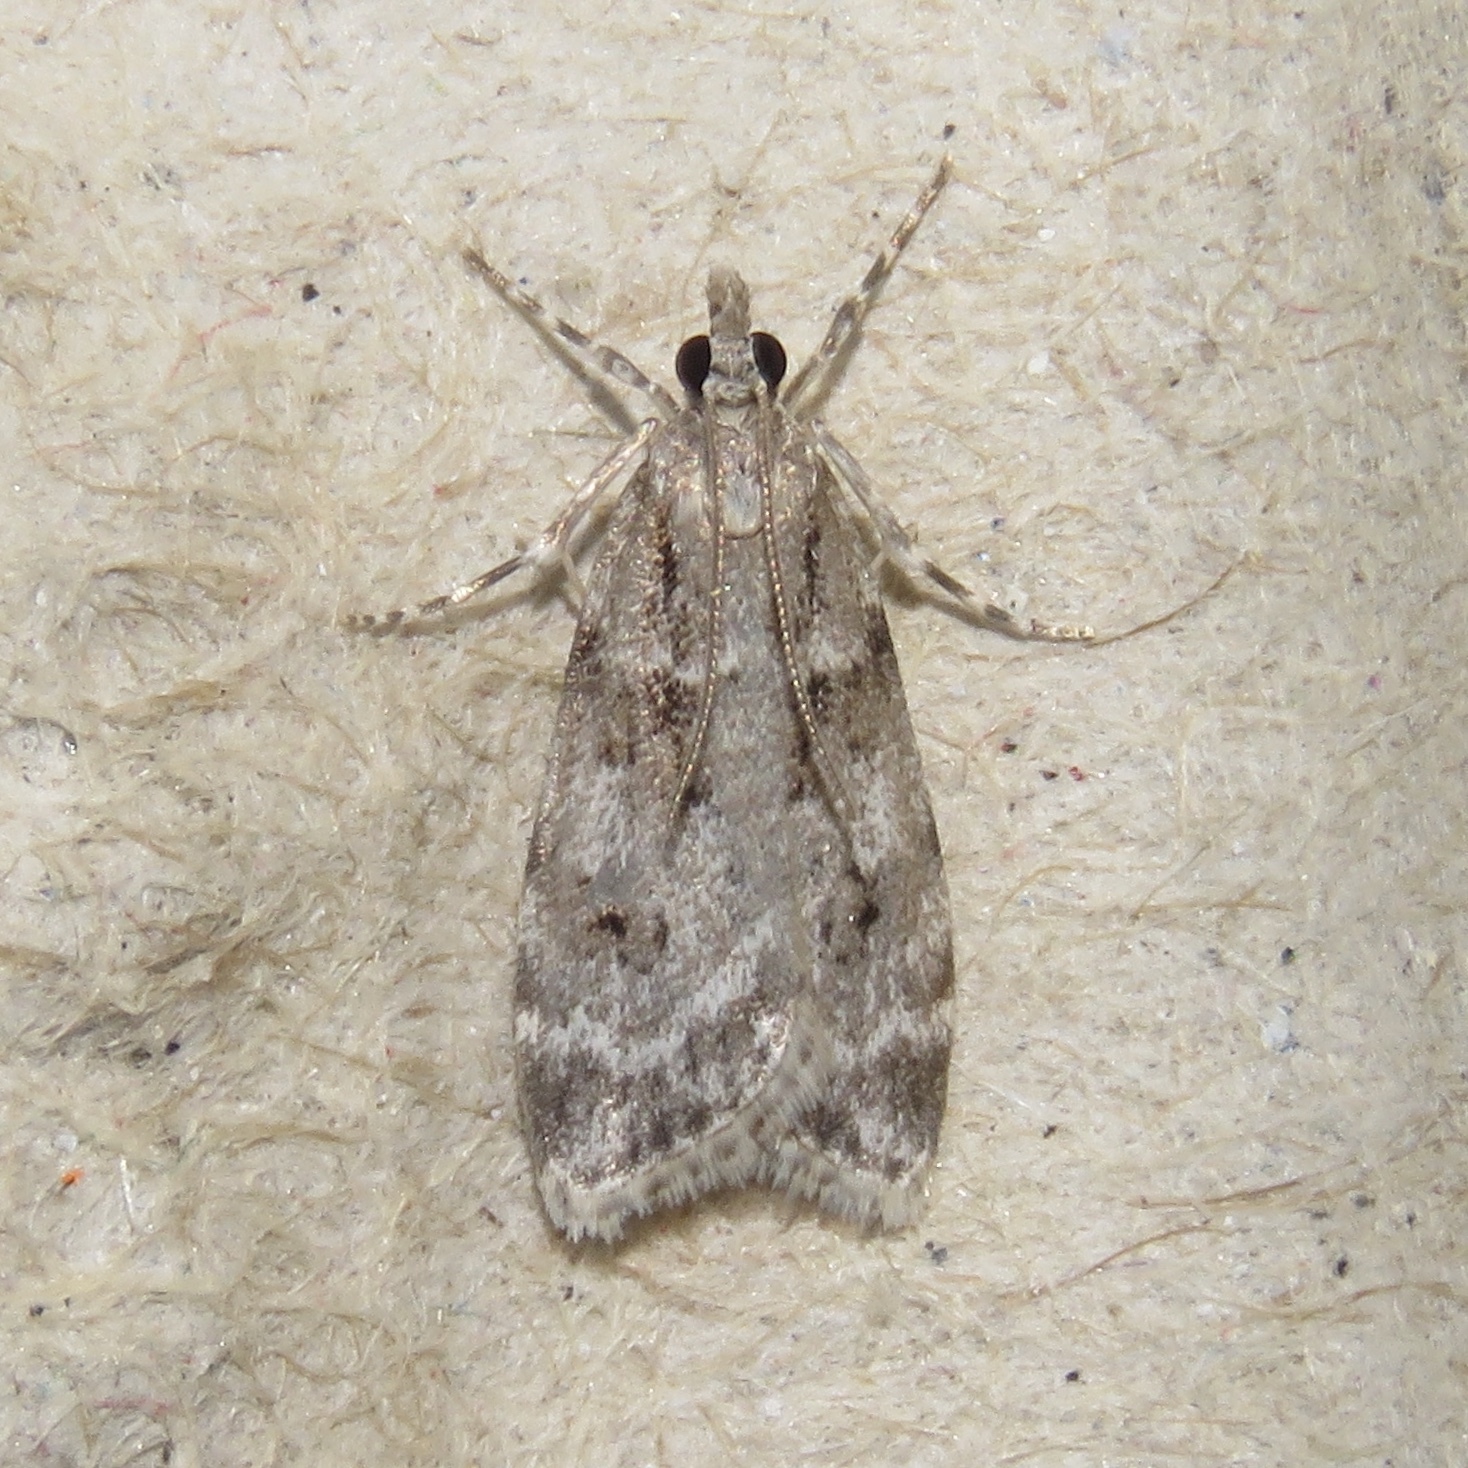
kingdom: Animalia
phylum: Arthropoda
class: Insecta
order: Lepidoptera
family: Crambidae
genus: Scoparia
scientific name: Scoparia biplagialis
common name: Double-striped scoparia moth
